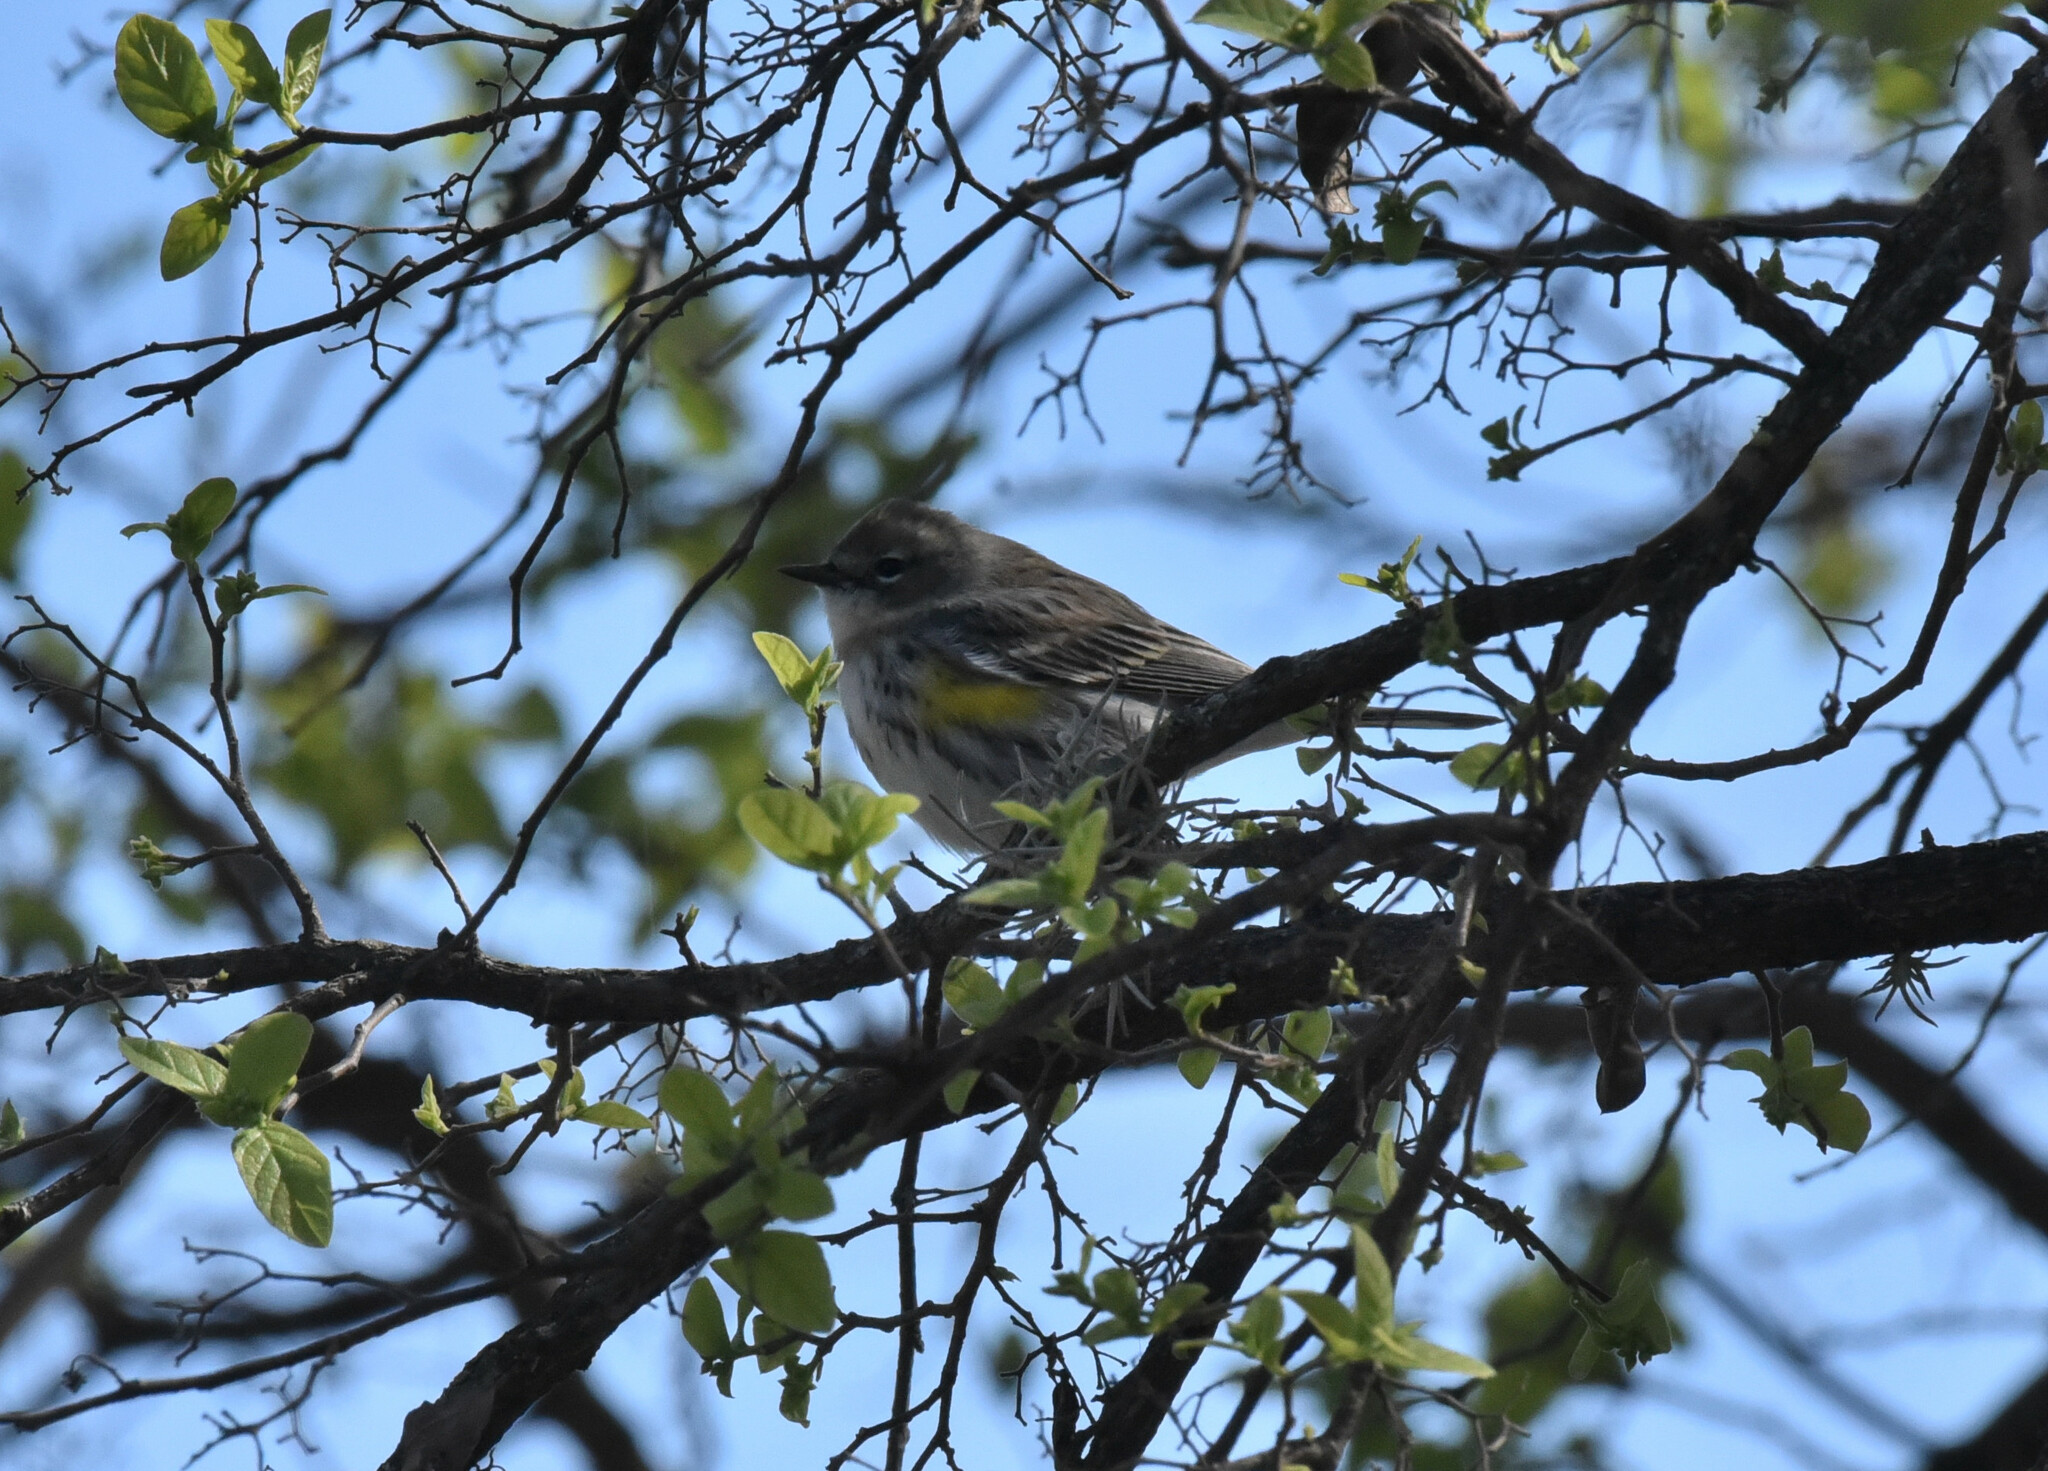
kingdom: Animalia
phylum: Chordata
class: Aves
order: Passeriformes
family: Parulidae
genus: Setophaga
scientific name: Setophaga coronata
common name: Myrtle warbler
